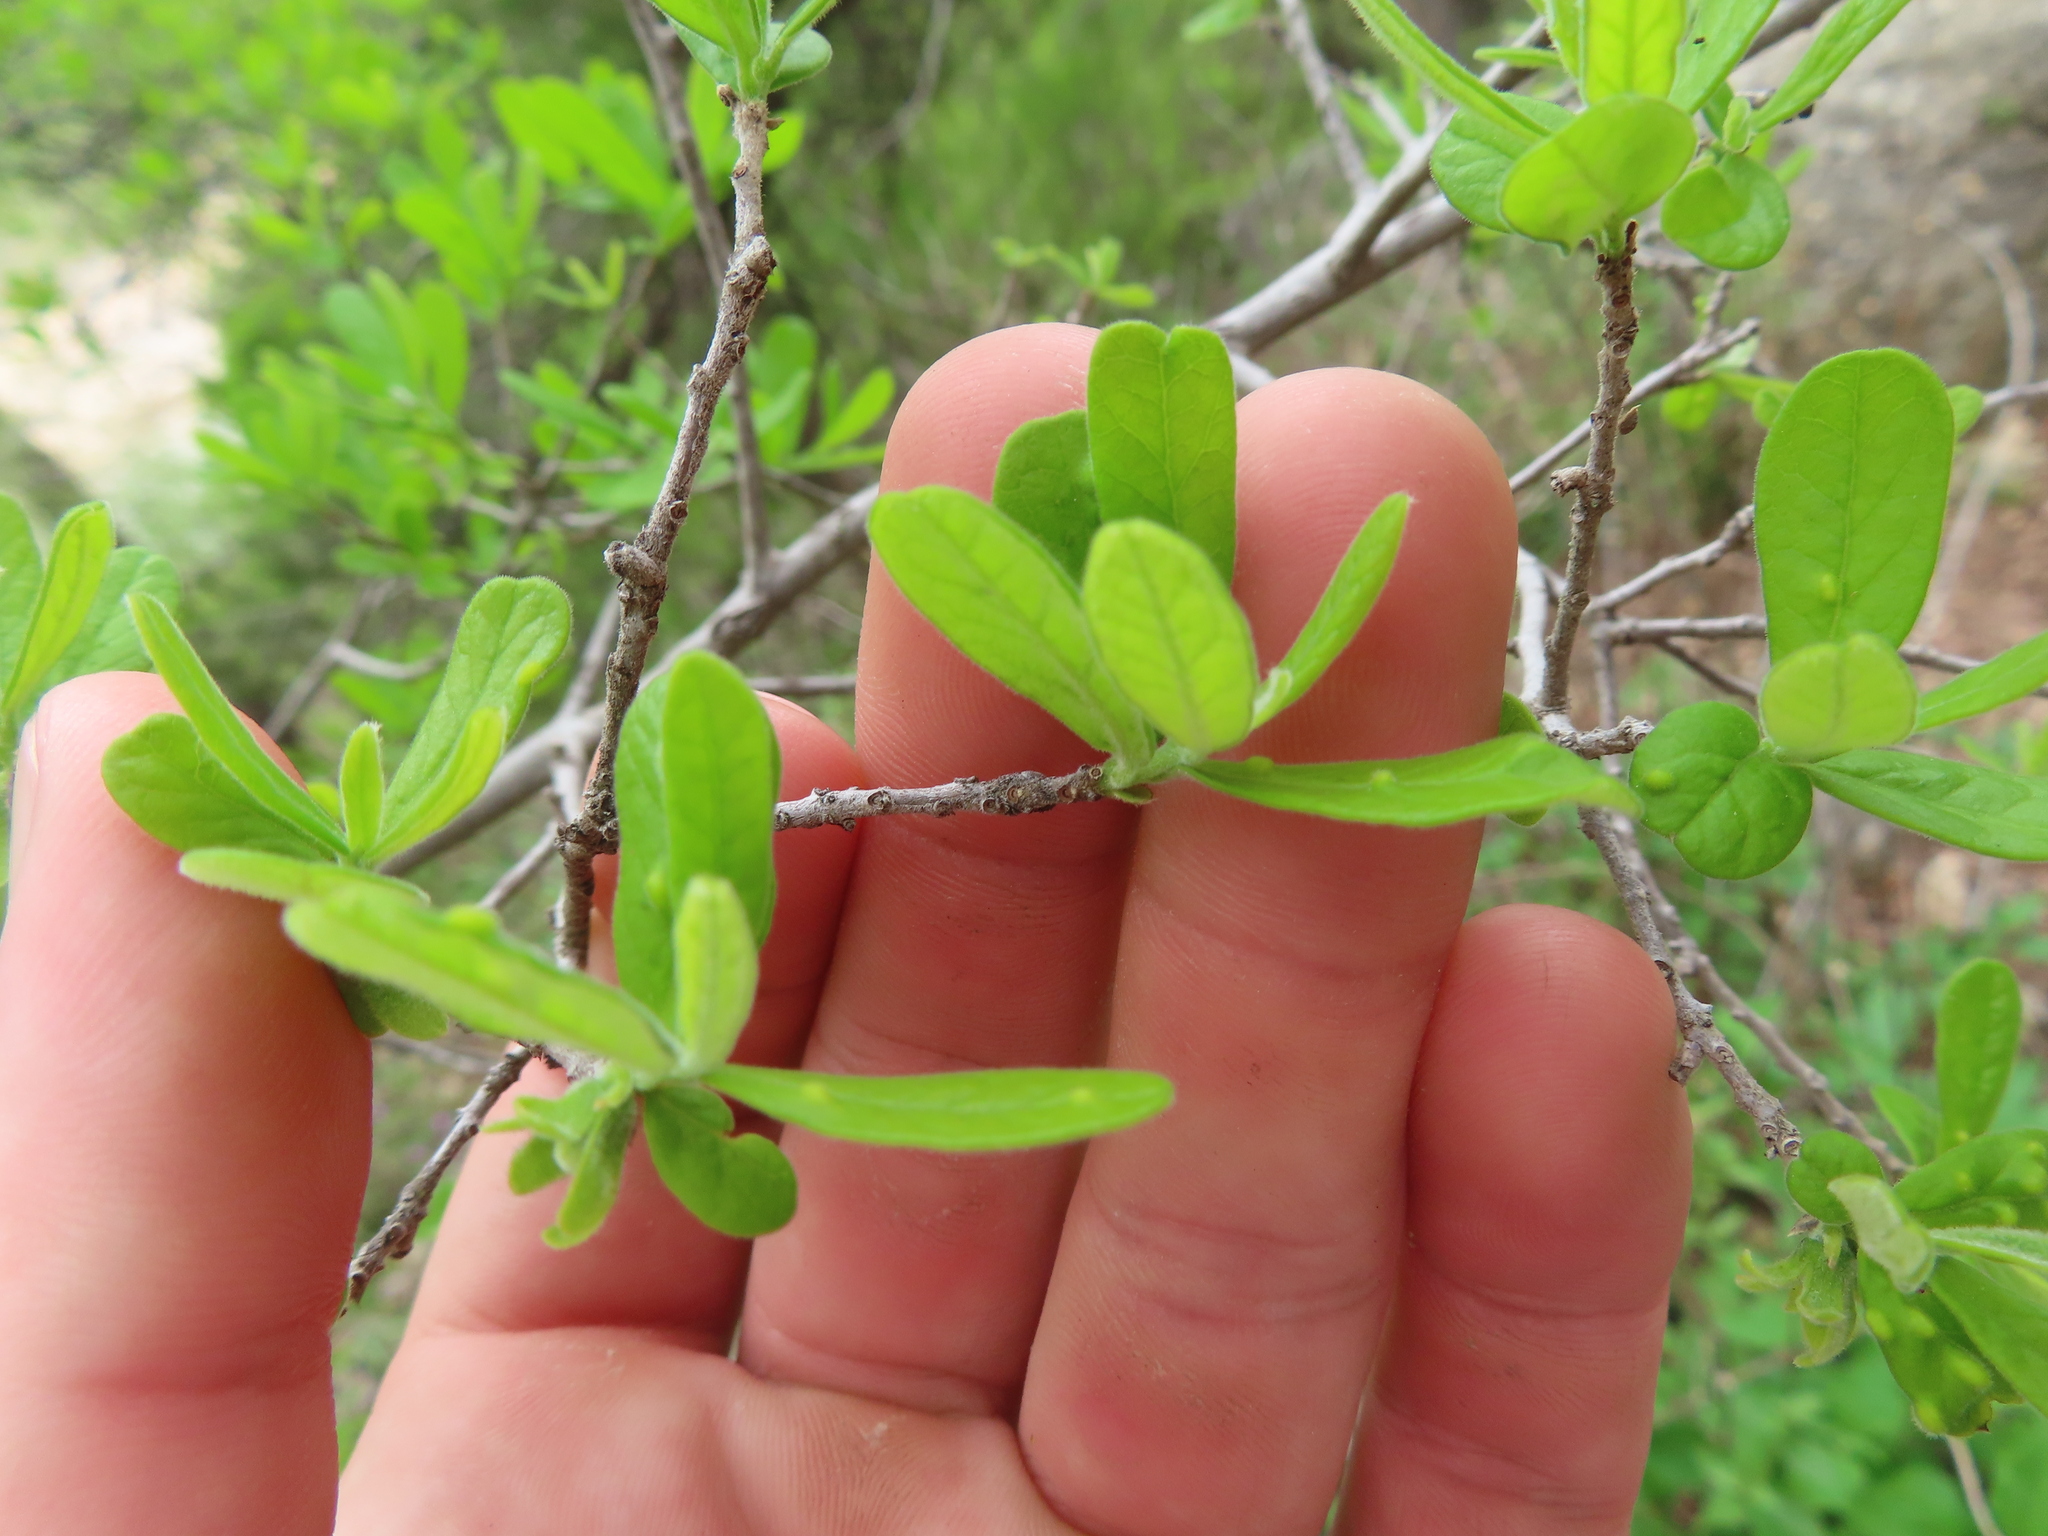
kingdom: Plantae
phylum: Tracheophyta
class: Magnoliopsida
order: Ericales
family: Ebenaceae
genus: Diospyros
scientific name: Diospyros texana
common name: Texas persimmon
